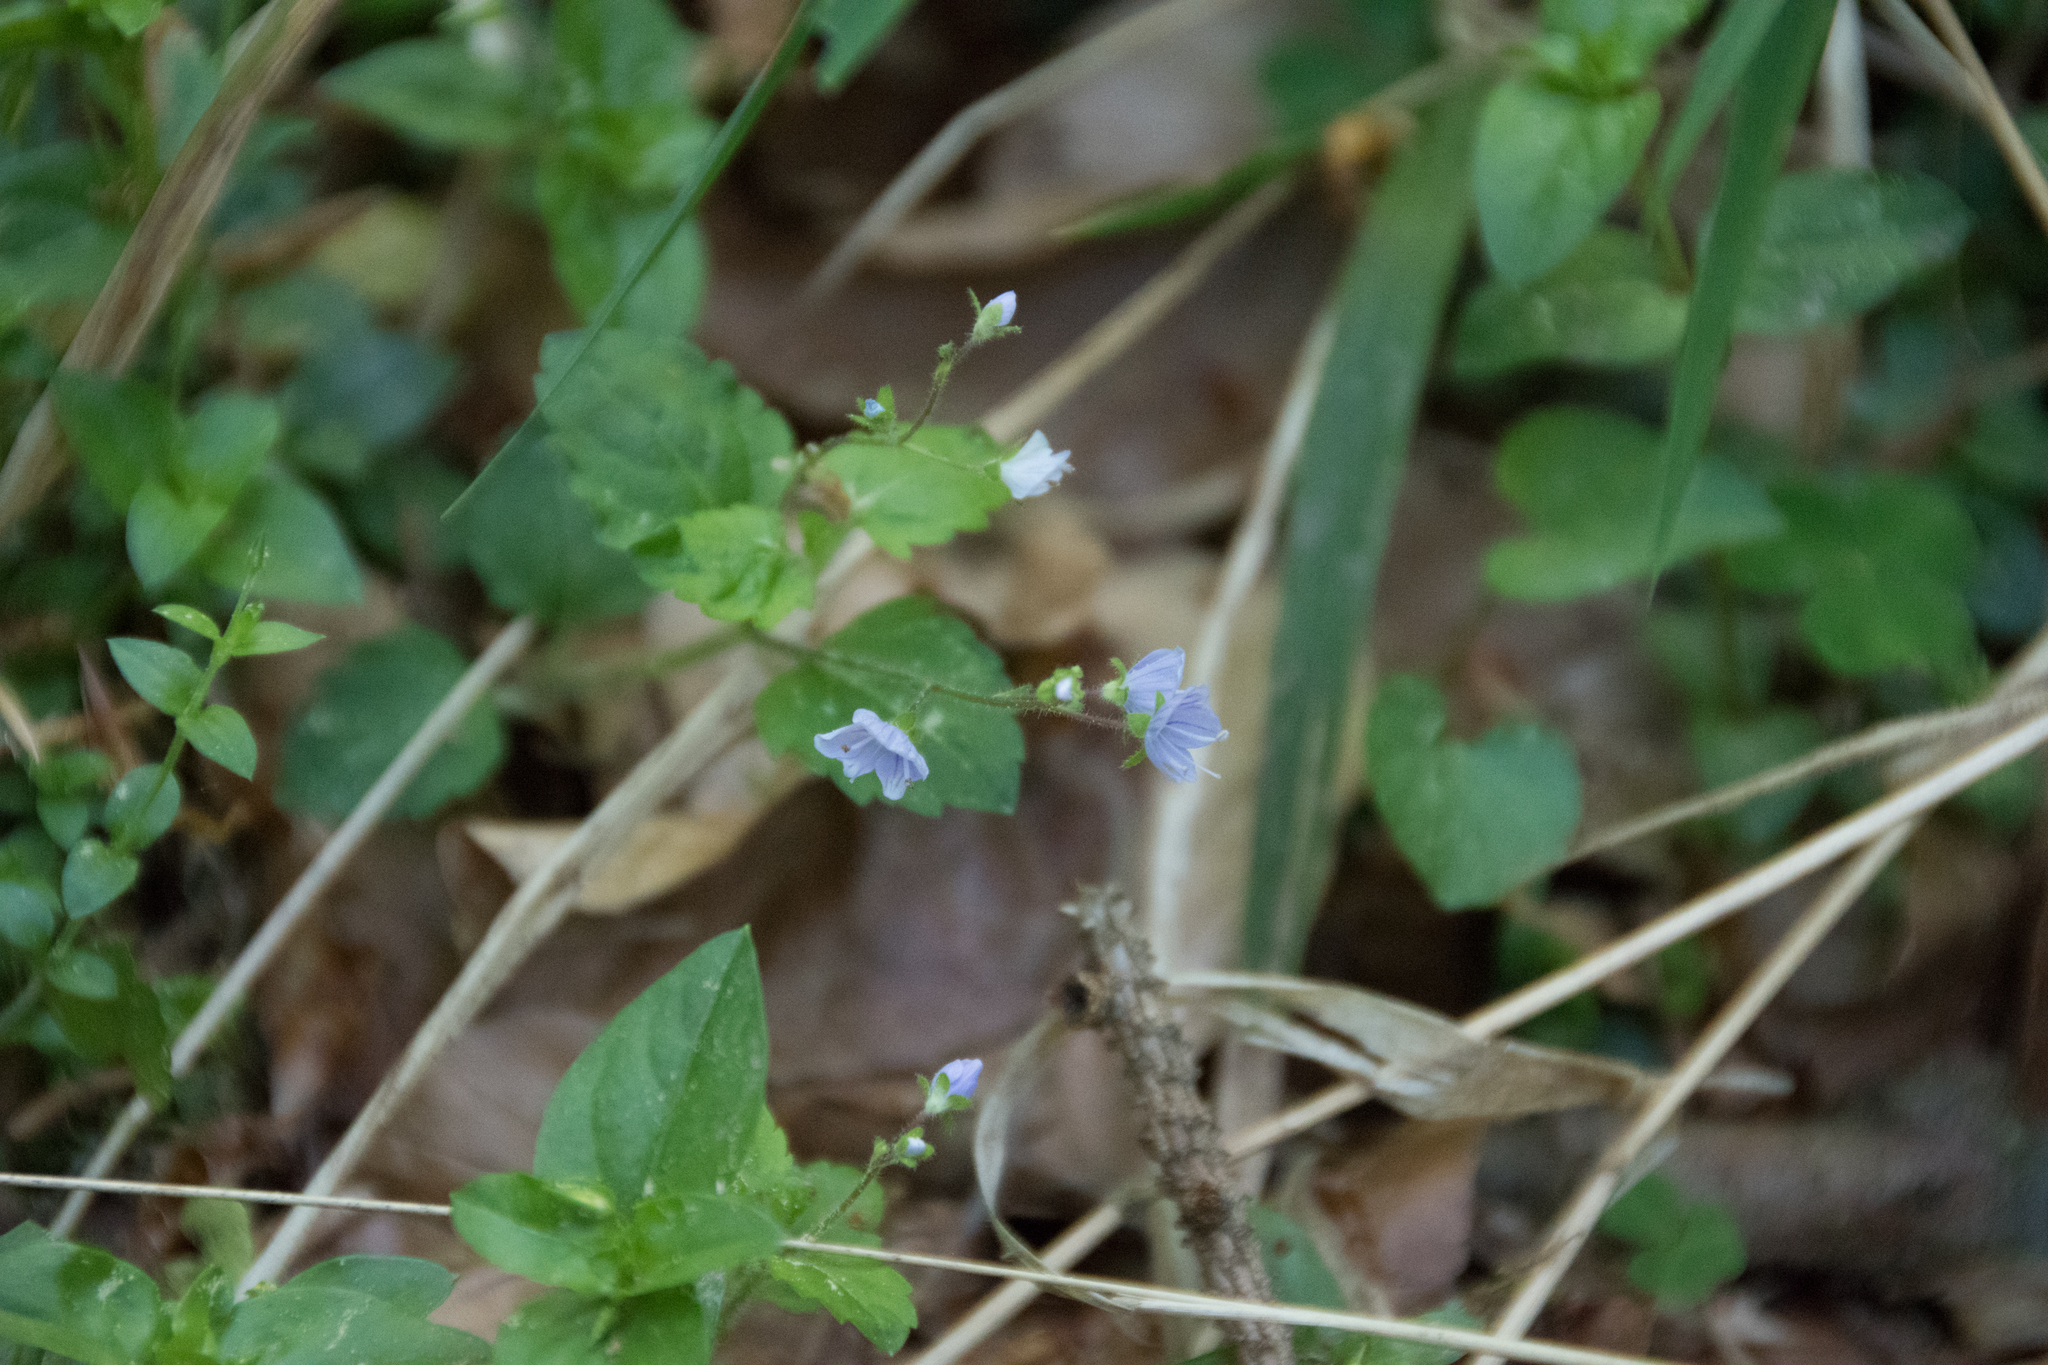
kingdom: Plantae
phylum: Tracheophyta
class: Magnoliopsida
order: Lamiales
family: Plantaginaceae
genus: Veronica
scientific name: Veronica montana
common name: Wood speedwell
